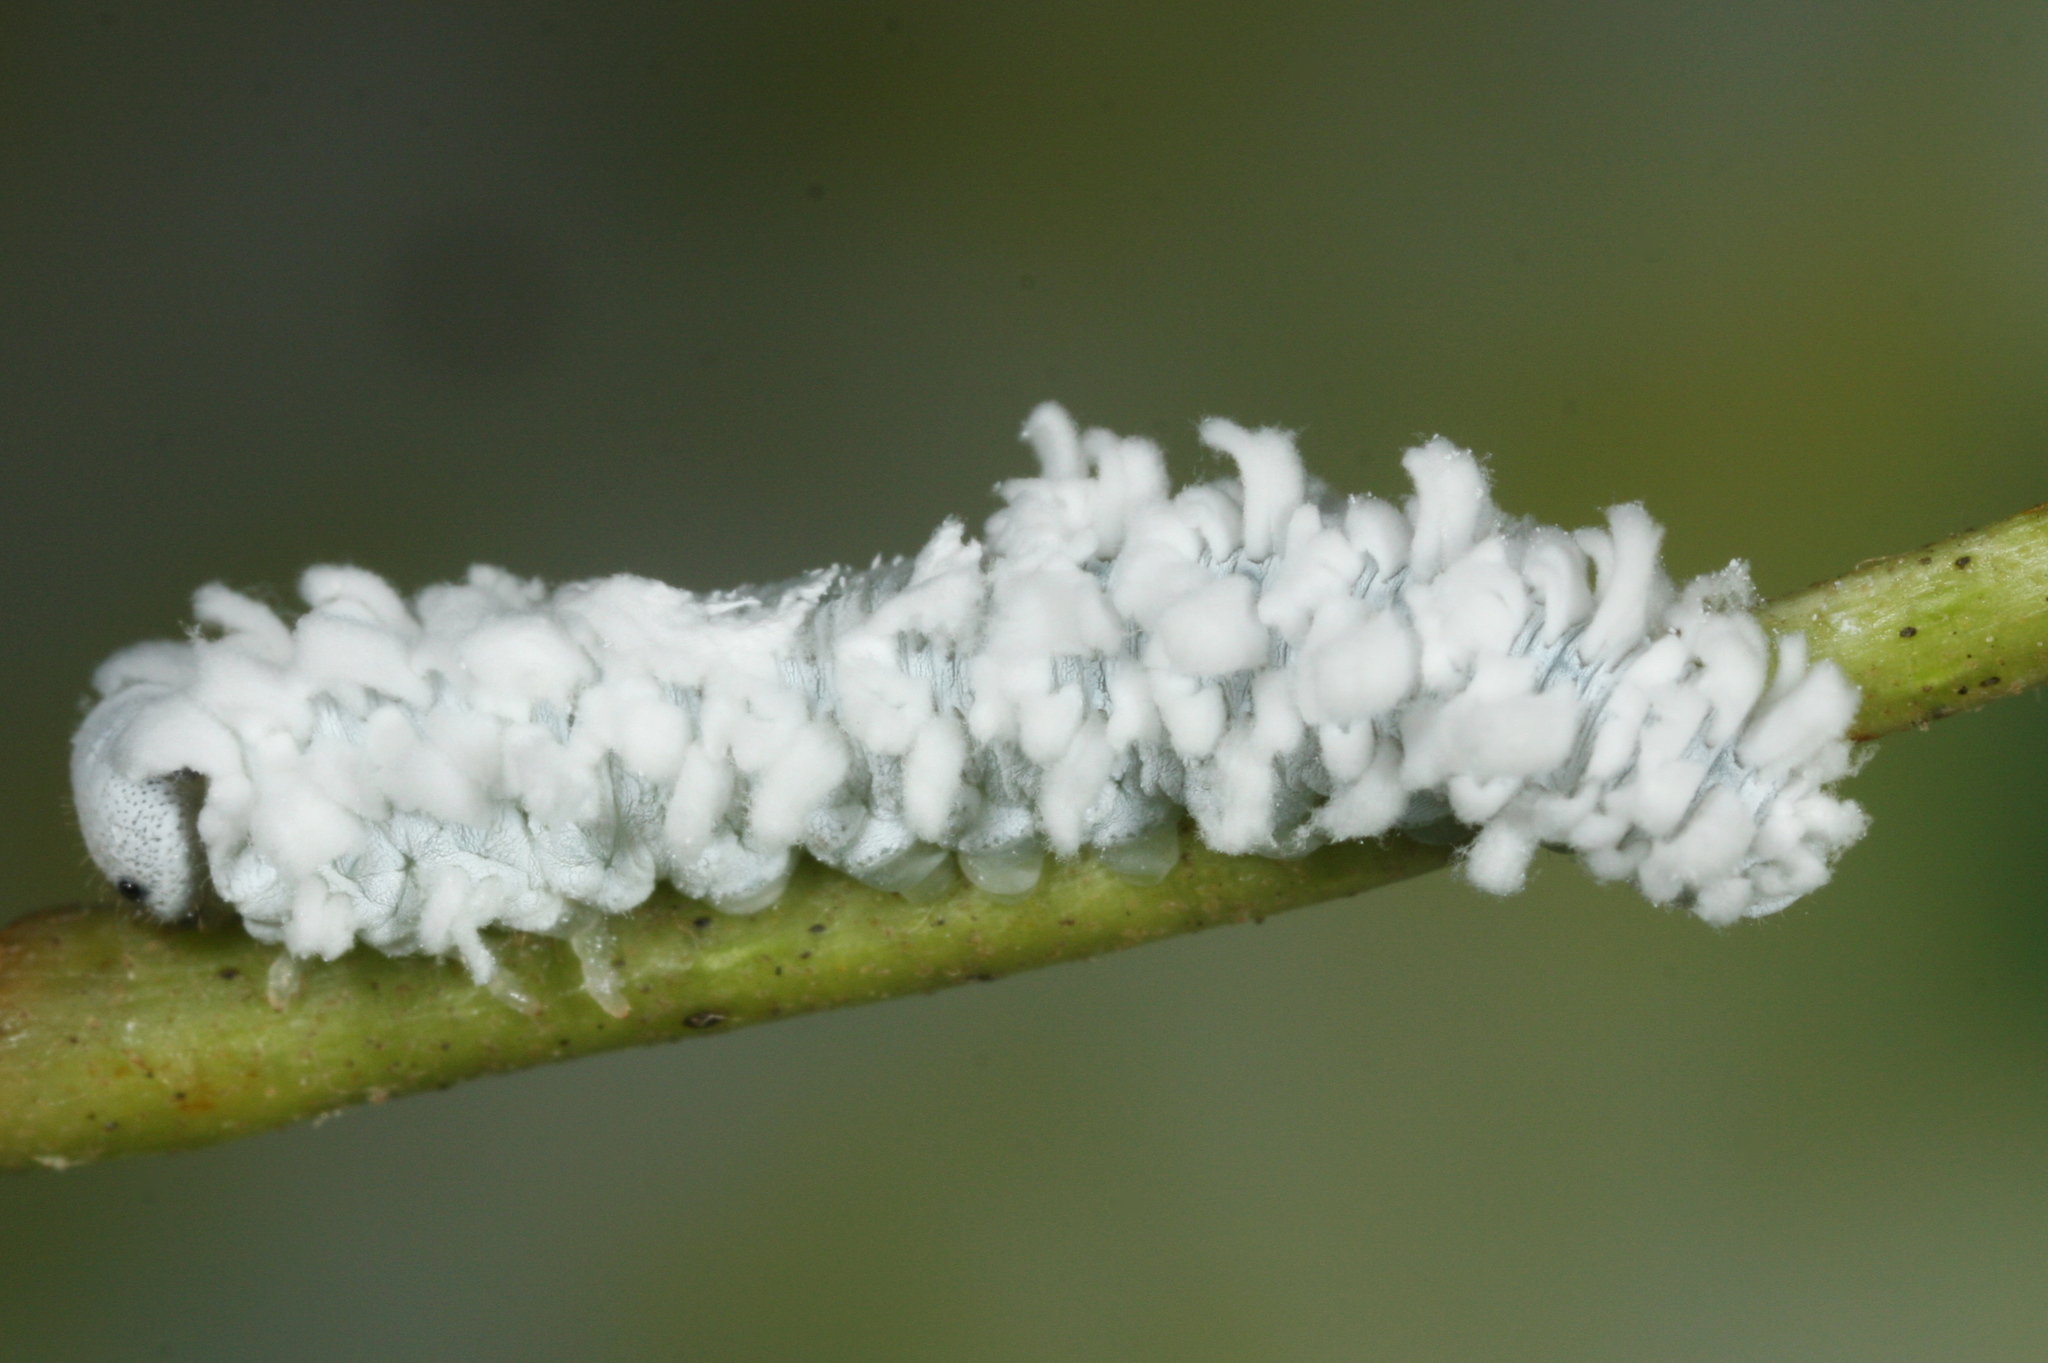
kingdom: Animalia
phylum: Arthropoda
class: Insecta
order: Hymenoptera
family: Tenthredinidae
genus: Eriocampa
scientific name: Eriocampa ovata
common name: Alder wooly sawfly
